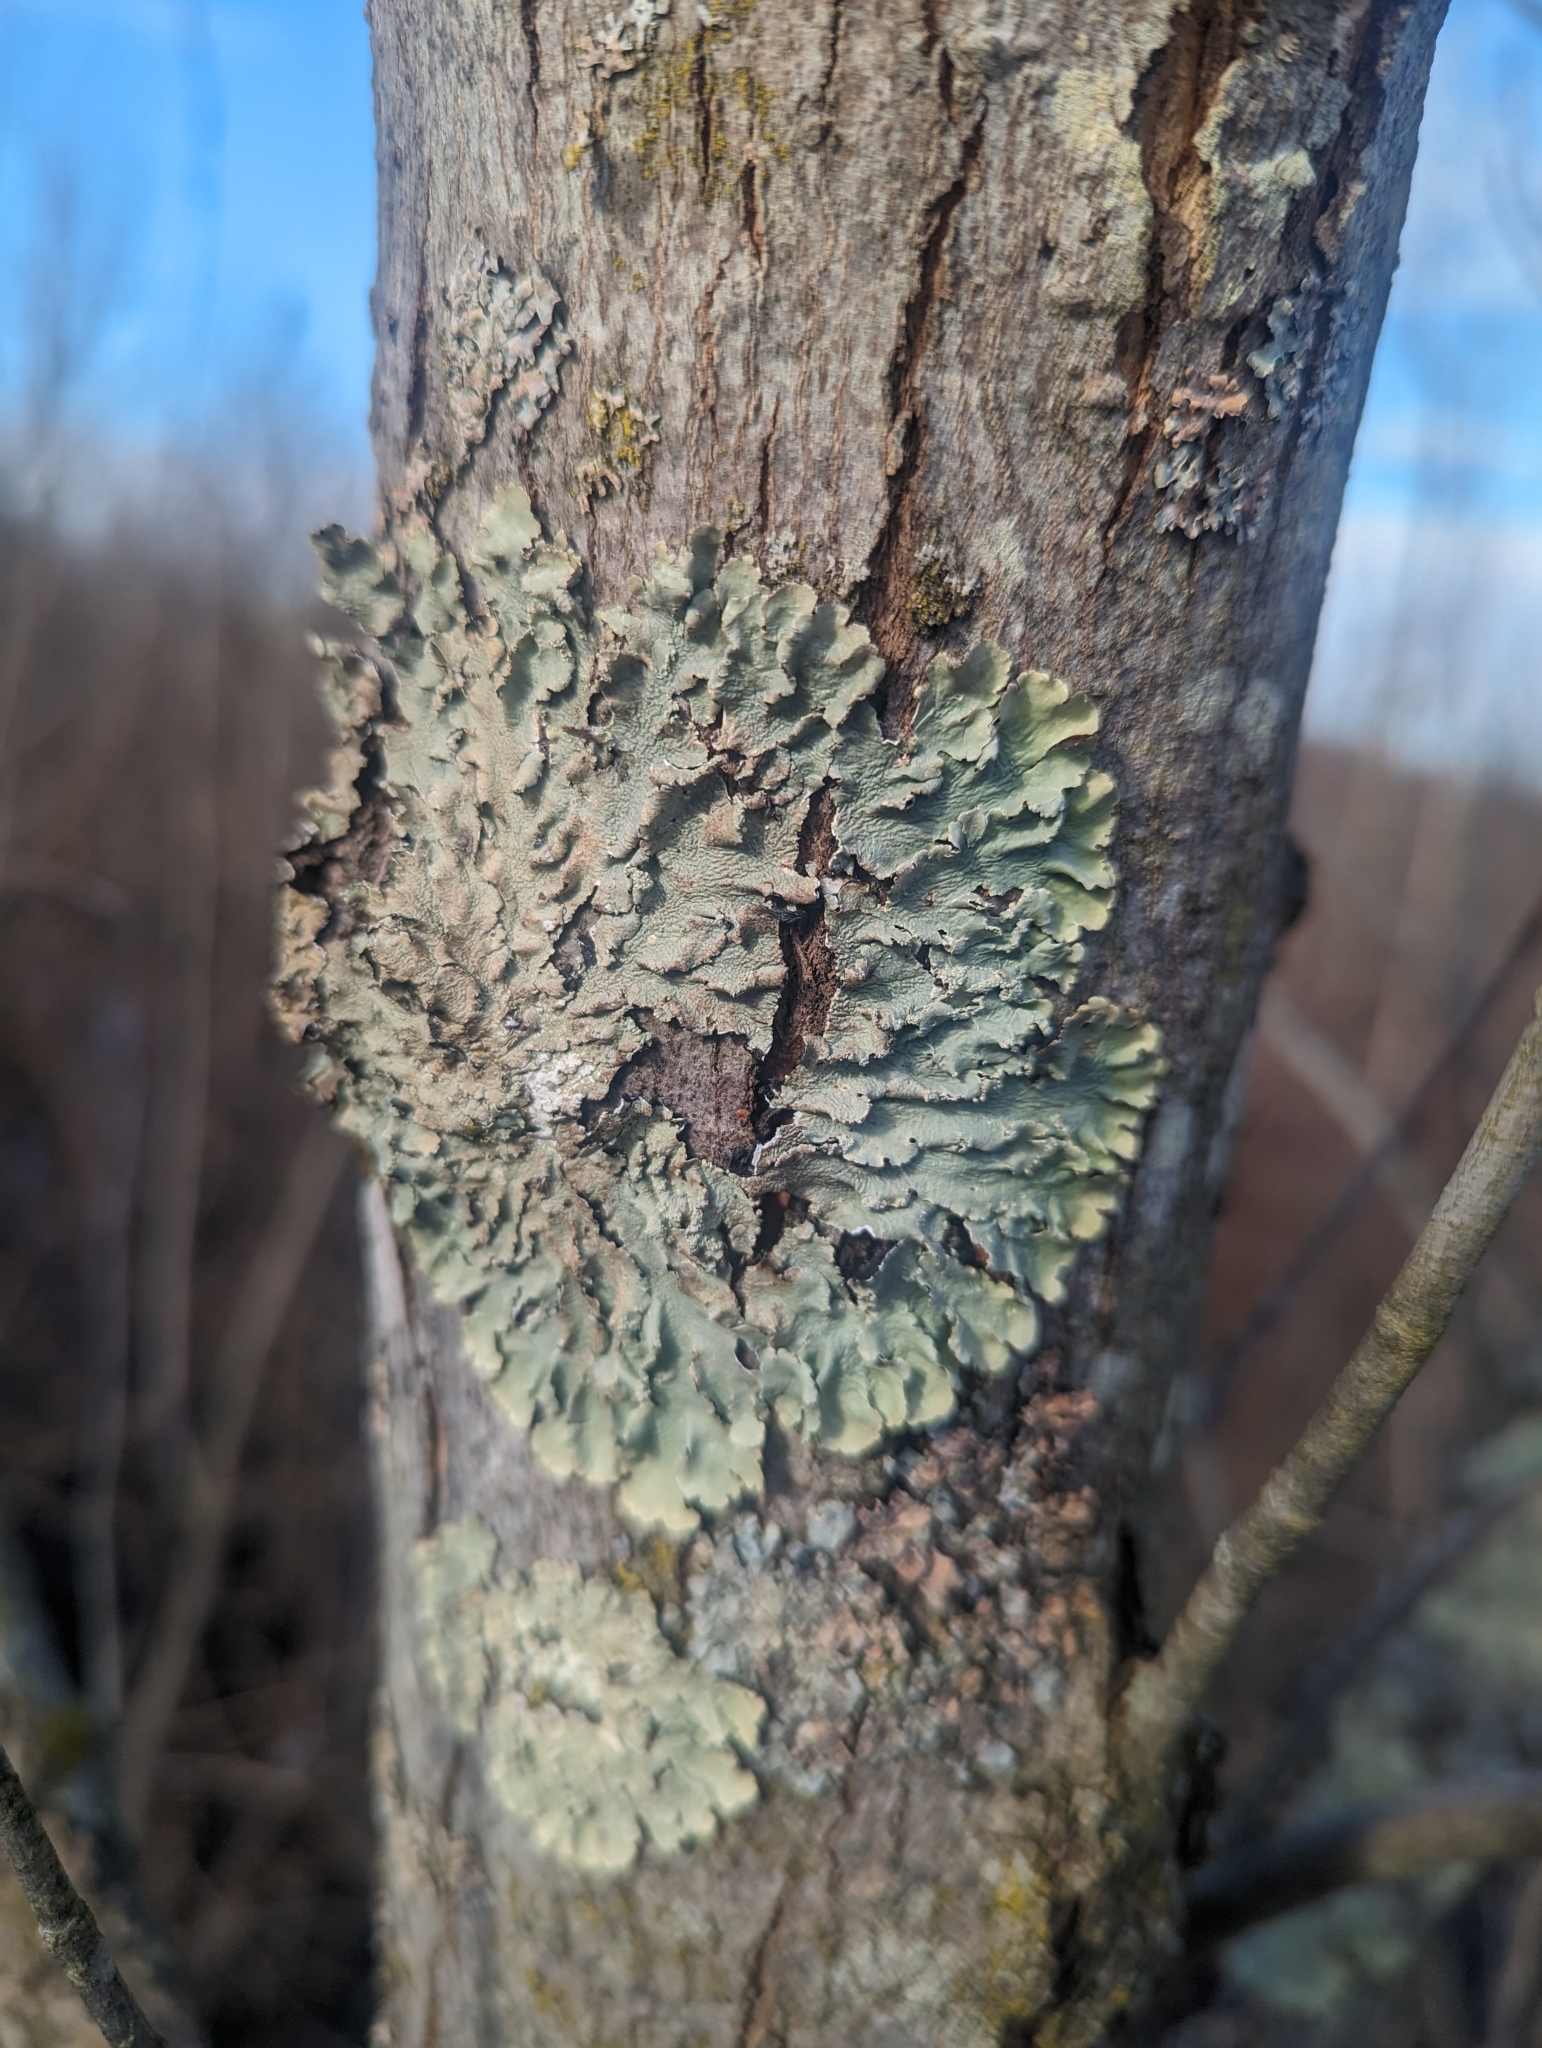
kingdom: Fungi
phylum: Ascomycota
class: Lecanoromycetes
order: Lecanorales
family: Parmeliaceae
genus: Flavoparmelia
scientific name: Flavoparmelia caperata
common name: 40-mile per hour lichen
